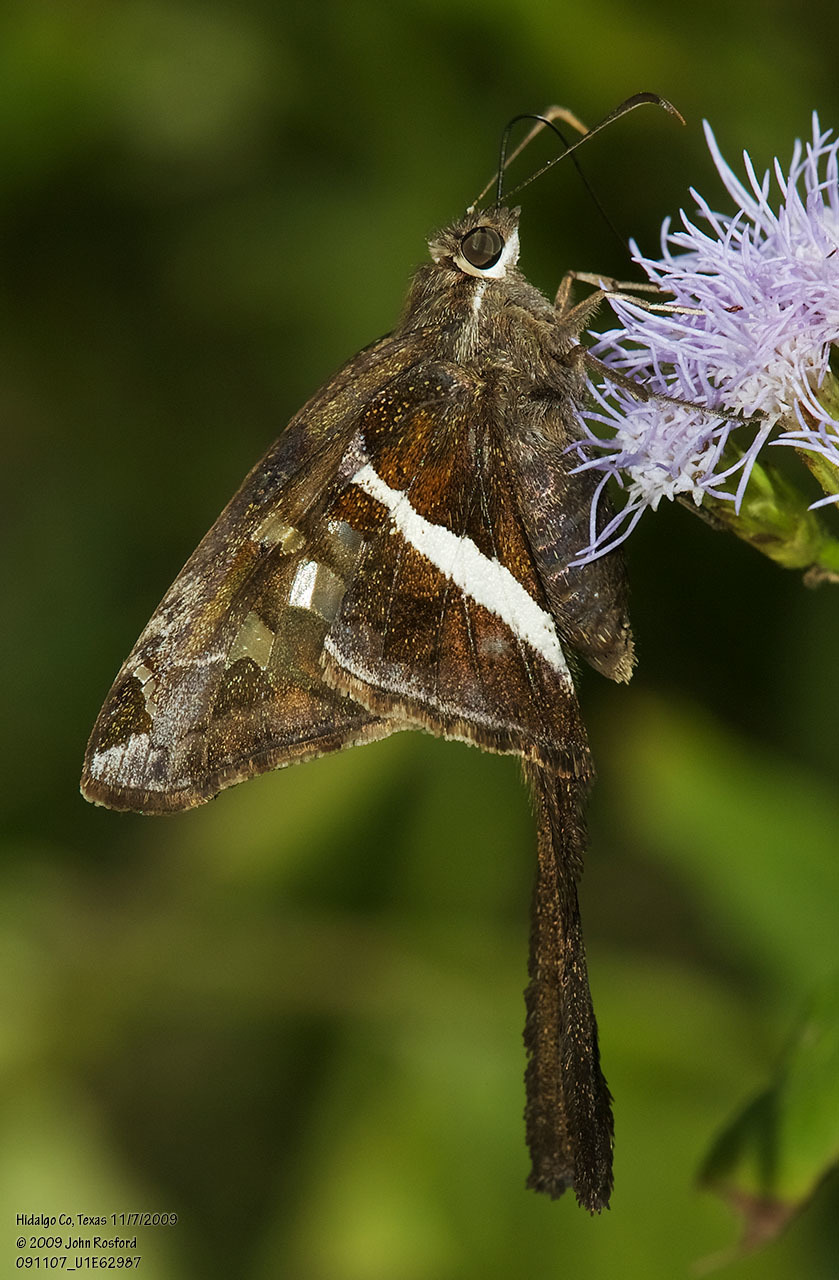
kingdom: Animalia
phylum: Arthropoda
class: Insecta
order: Lepidoptera
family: Hesperiidae
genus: Chioides
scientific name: Chioides catillus
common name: Silverbanded skipper
